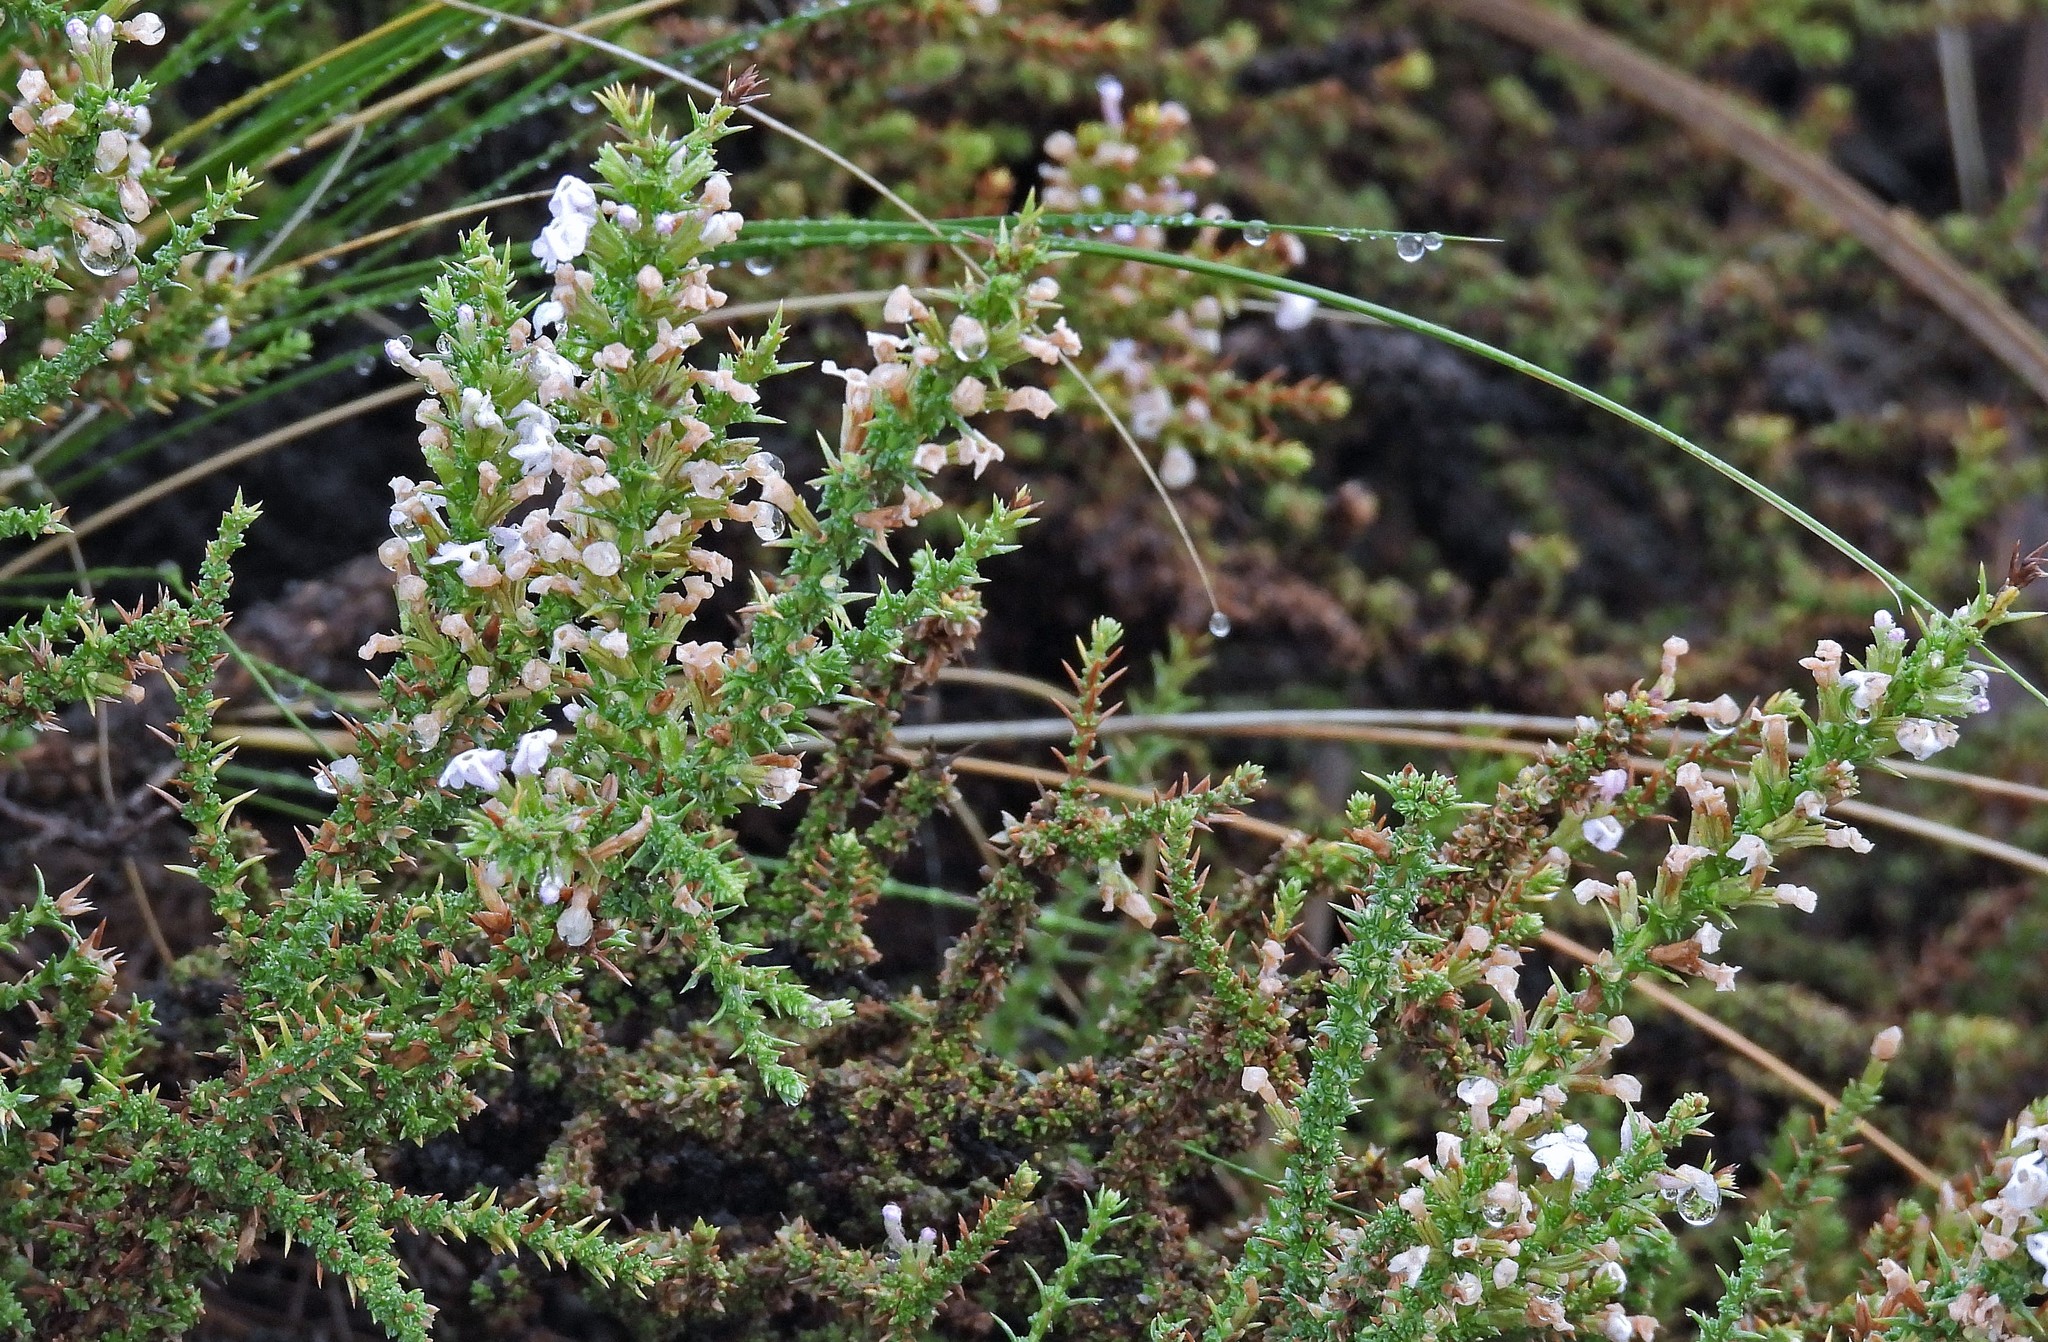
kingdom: Plantae
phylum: Tracheophyta
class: Magnoliopsida
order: Lamiales
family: Verbenaceae
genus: Junellia
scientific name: Junellia seriphioides
